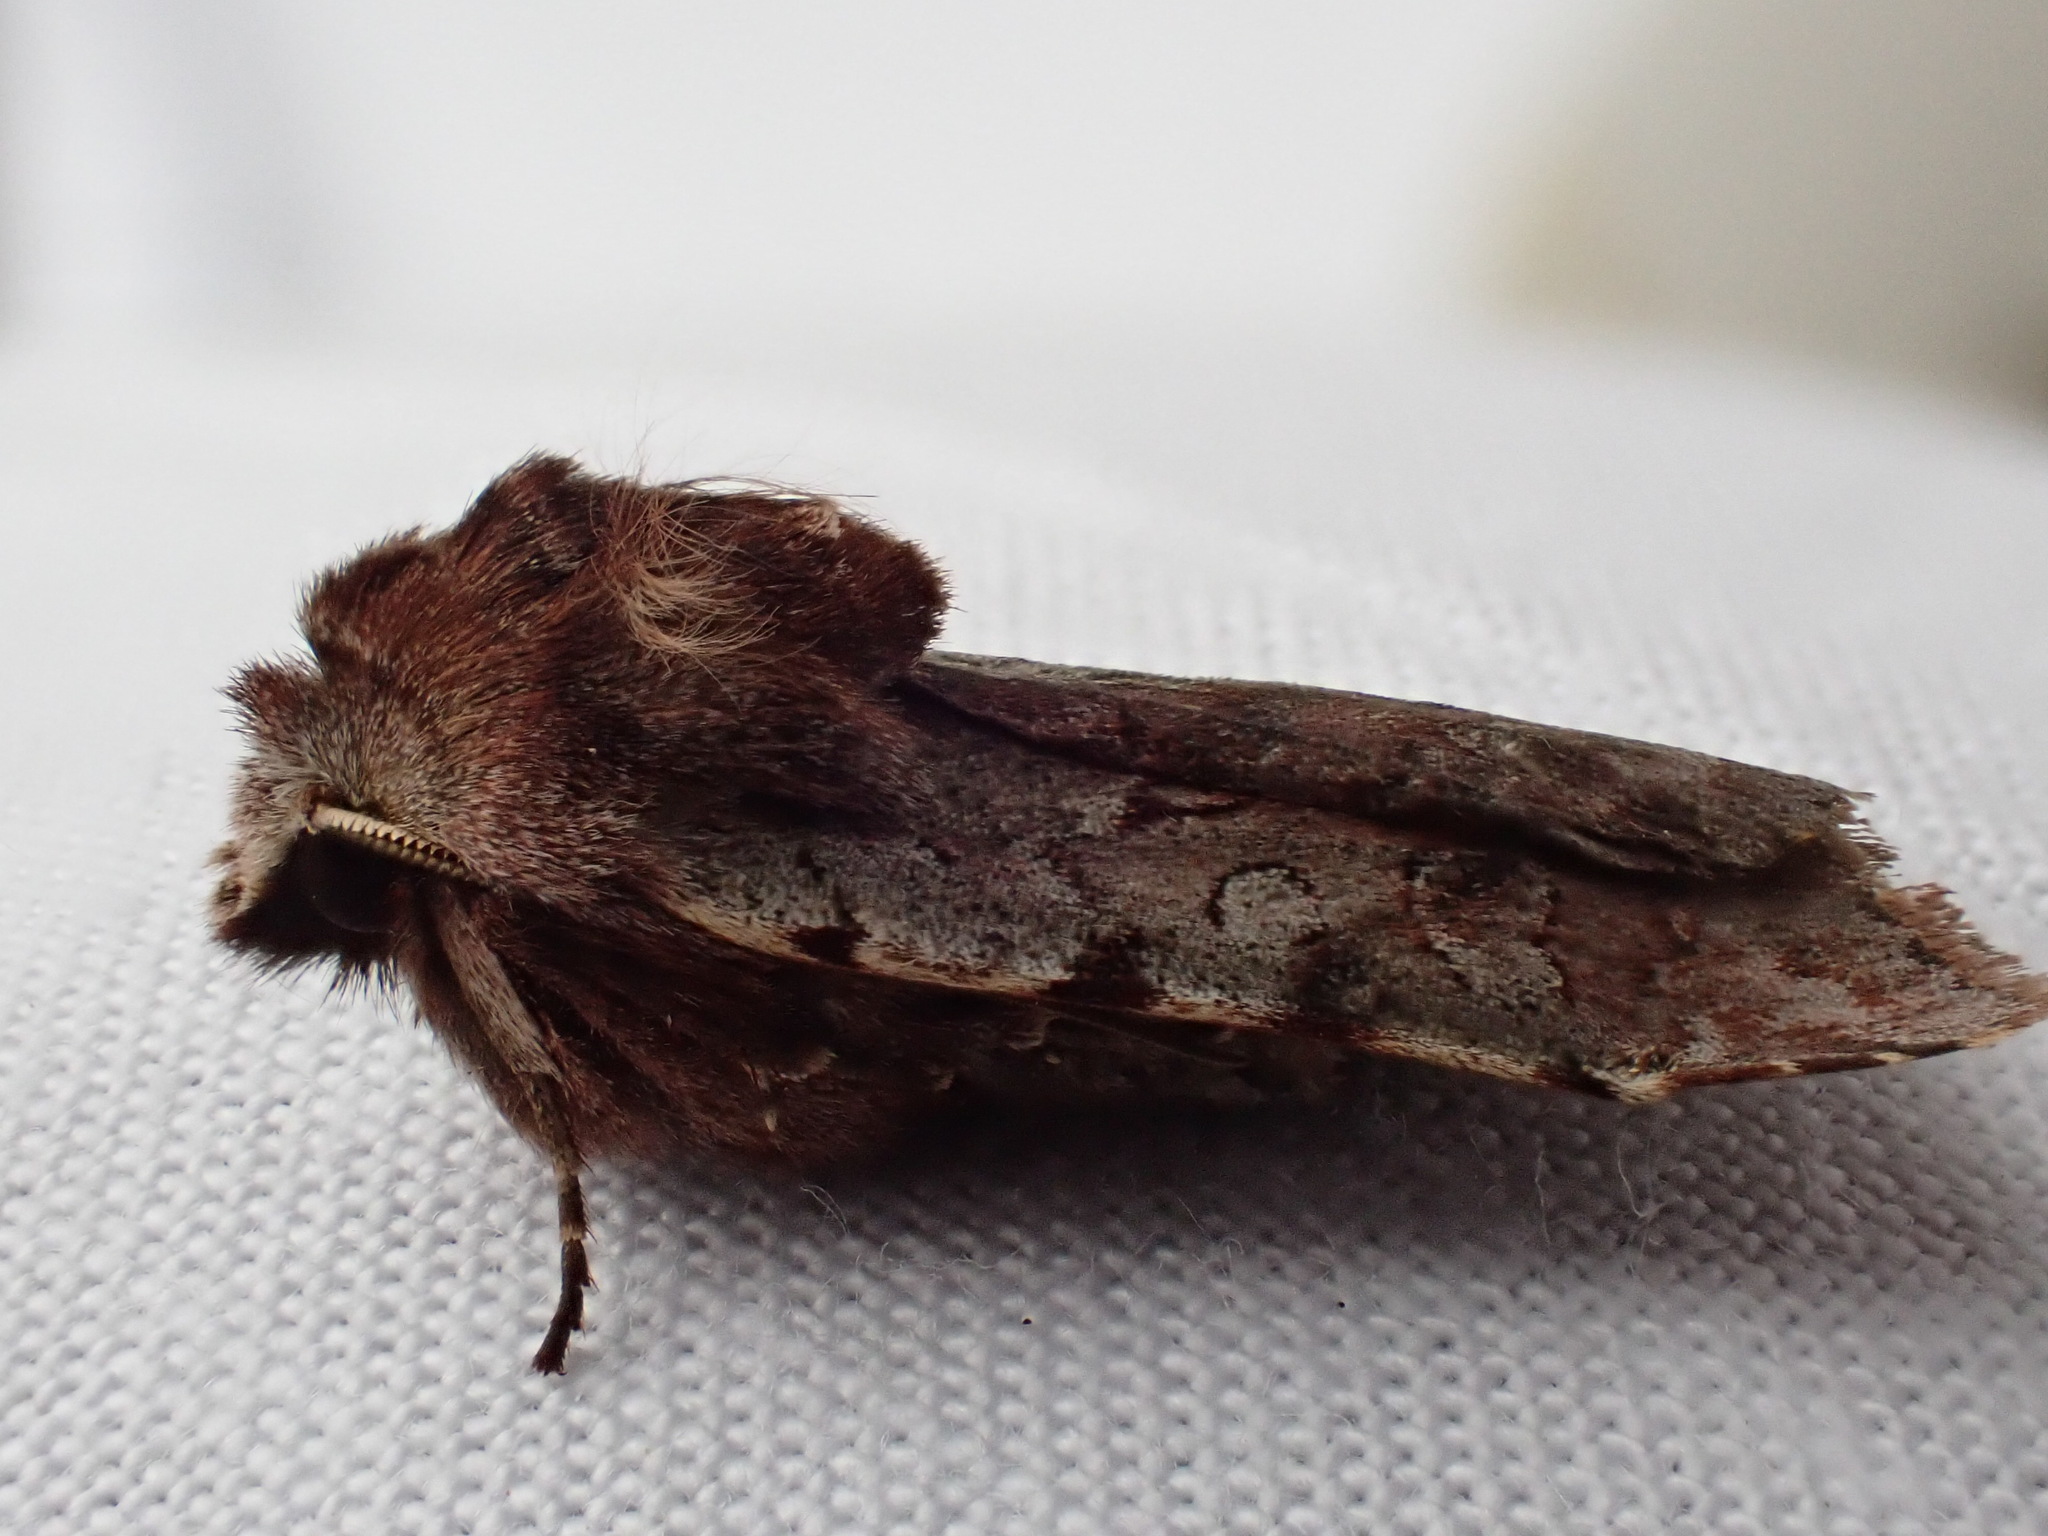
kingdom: Animalia
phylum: Arthropoda
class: Insecta
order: Lepidoptera
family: Noctuidae
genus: Cerastis
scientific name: Cerastis rubricosa
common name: Red chestnut
